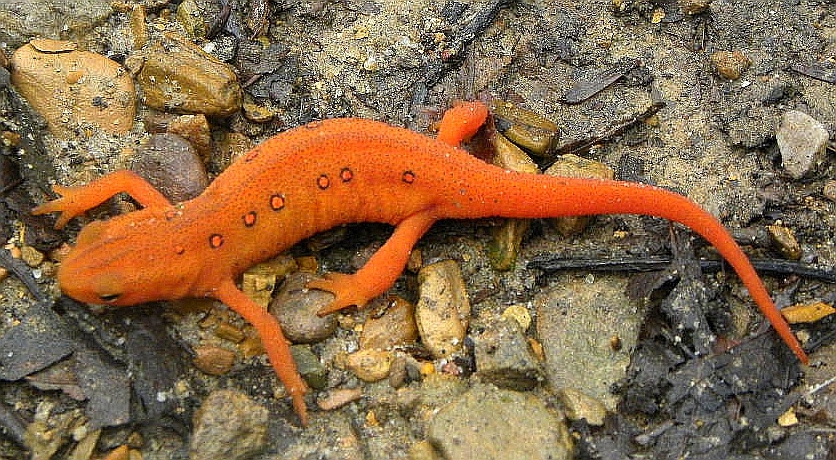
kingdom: Animalia
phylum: Chordata
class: Amphibia
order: Caudata
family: Salamandridae
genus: Notophthalmus
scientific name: Notophthalmus viridescens
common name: Eastern newt
